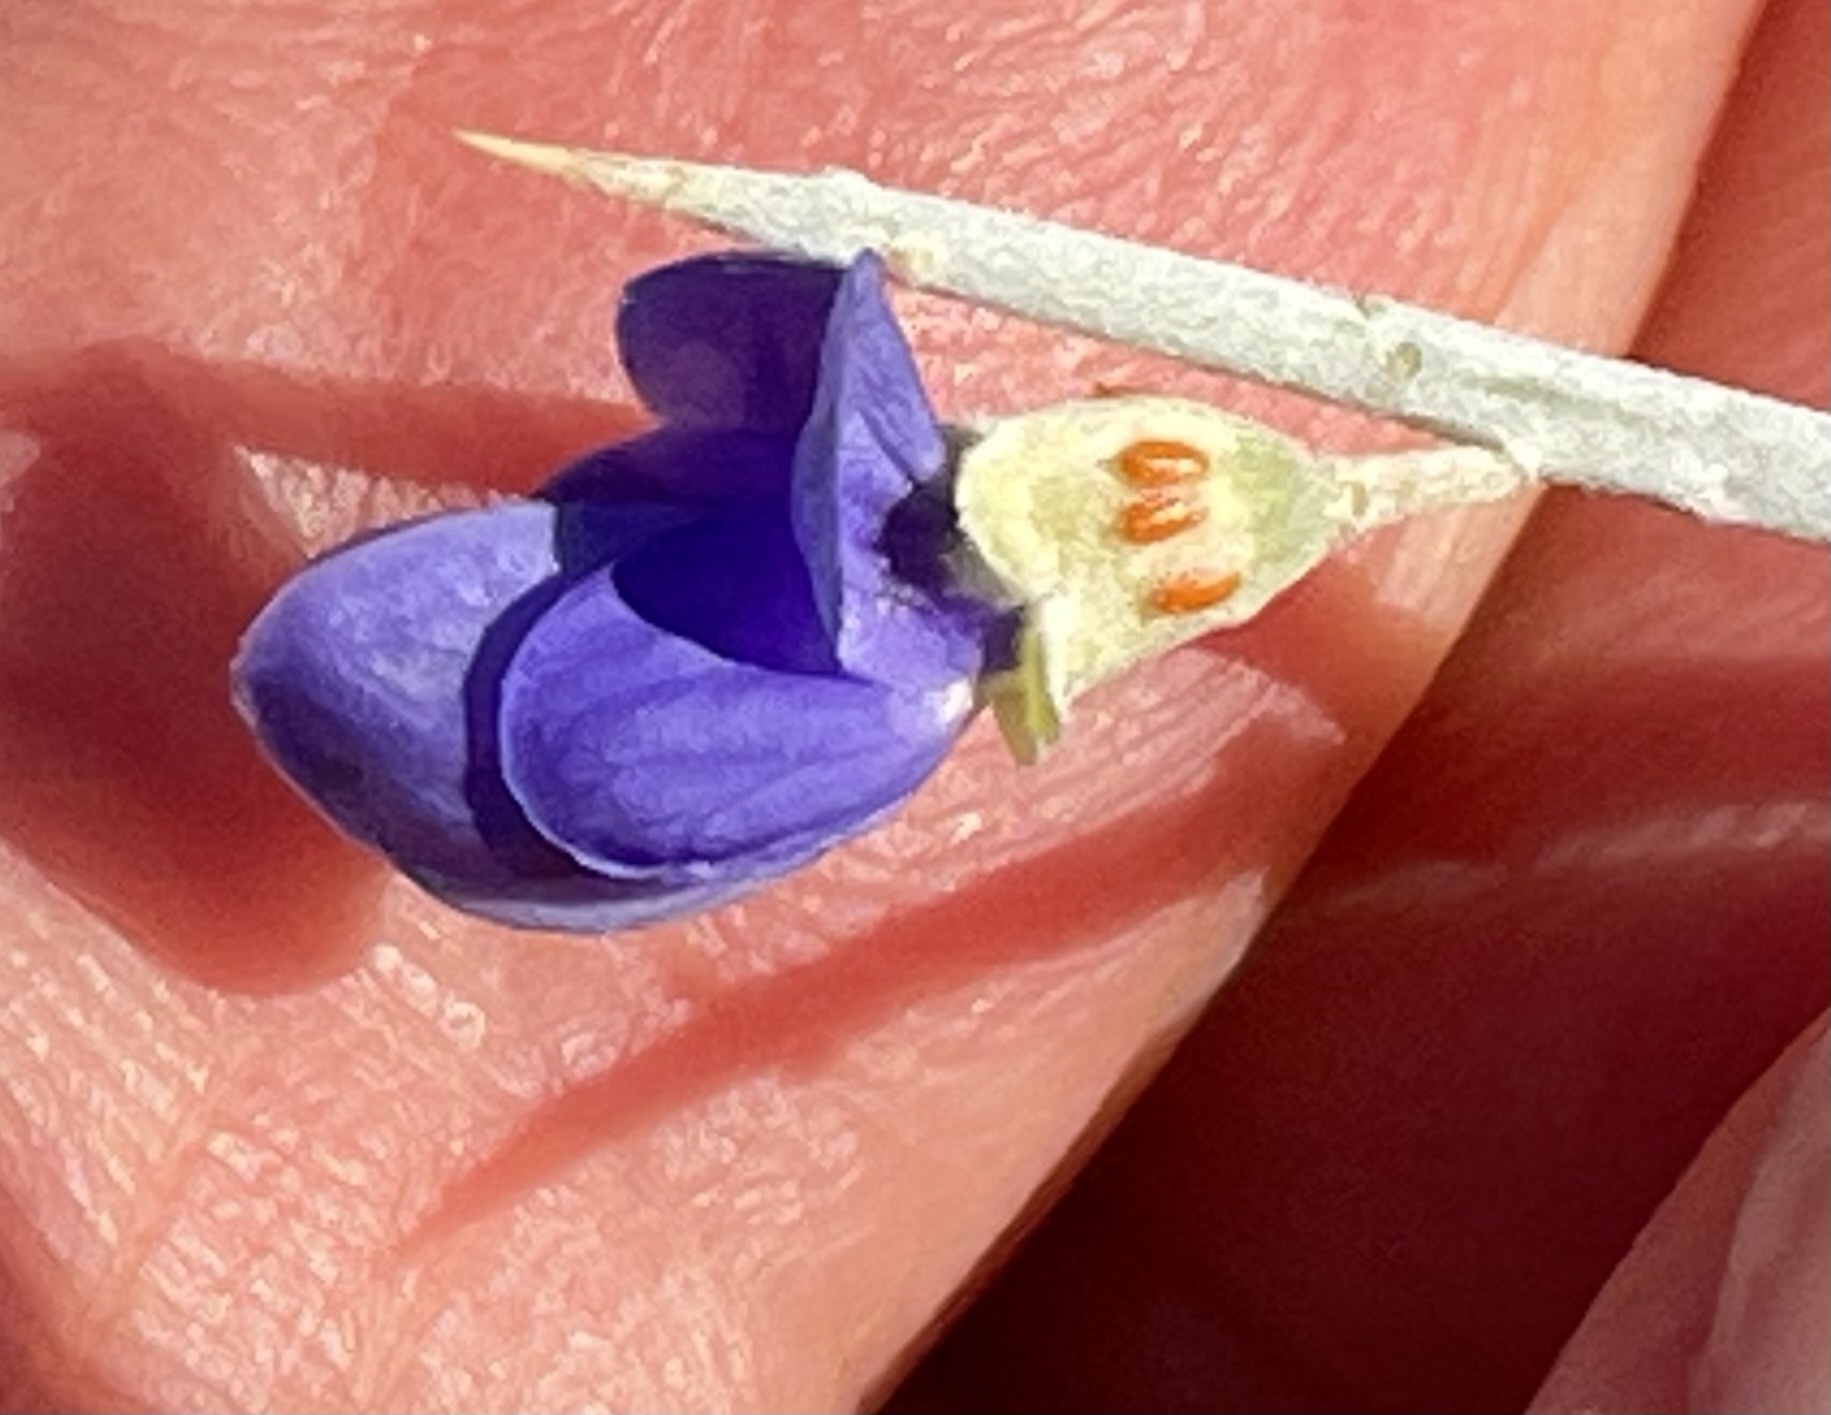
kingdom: Plantae
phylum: Tracheophyta
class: Magnoliopsida
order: Fabales
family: Fabaceae
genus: Psorothamnus
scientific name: Psorothamnus spinosus
